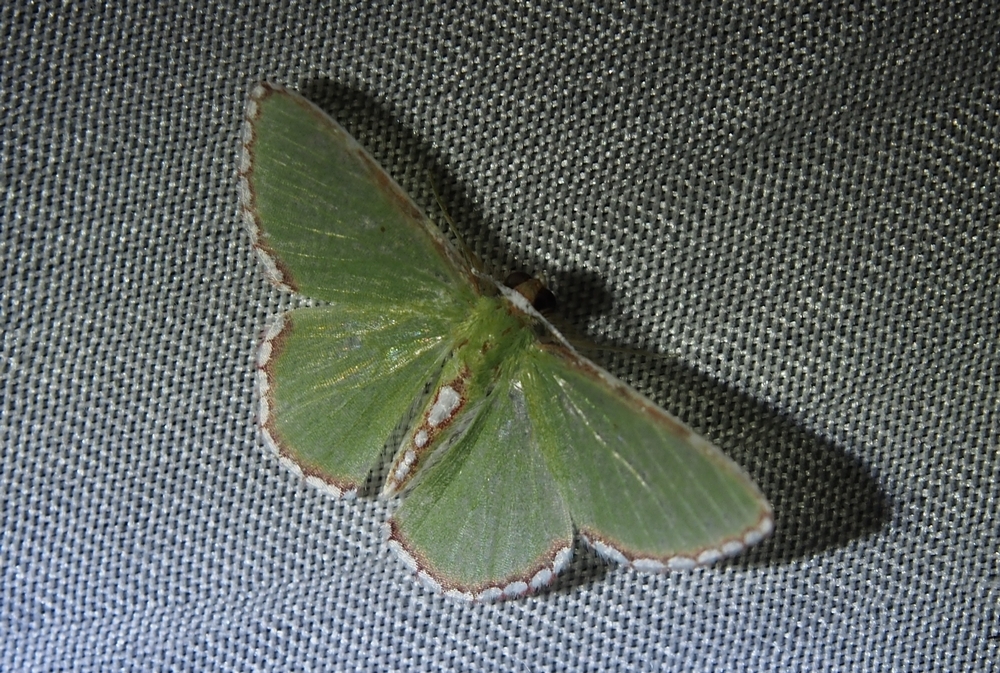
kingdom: Animalia
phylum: Arthropoda
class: Insecta
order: Lepidoptera
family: Geometridae
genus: Synchlora
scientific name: Synchlora pulchrifimbria
